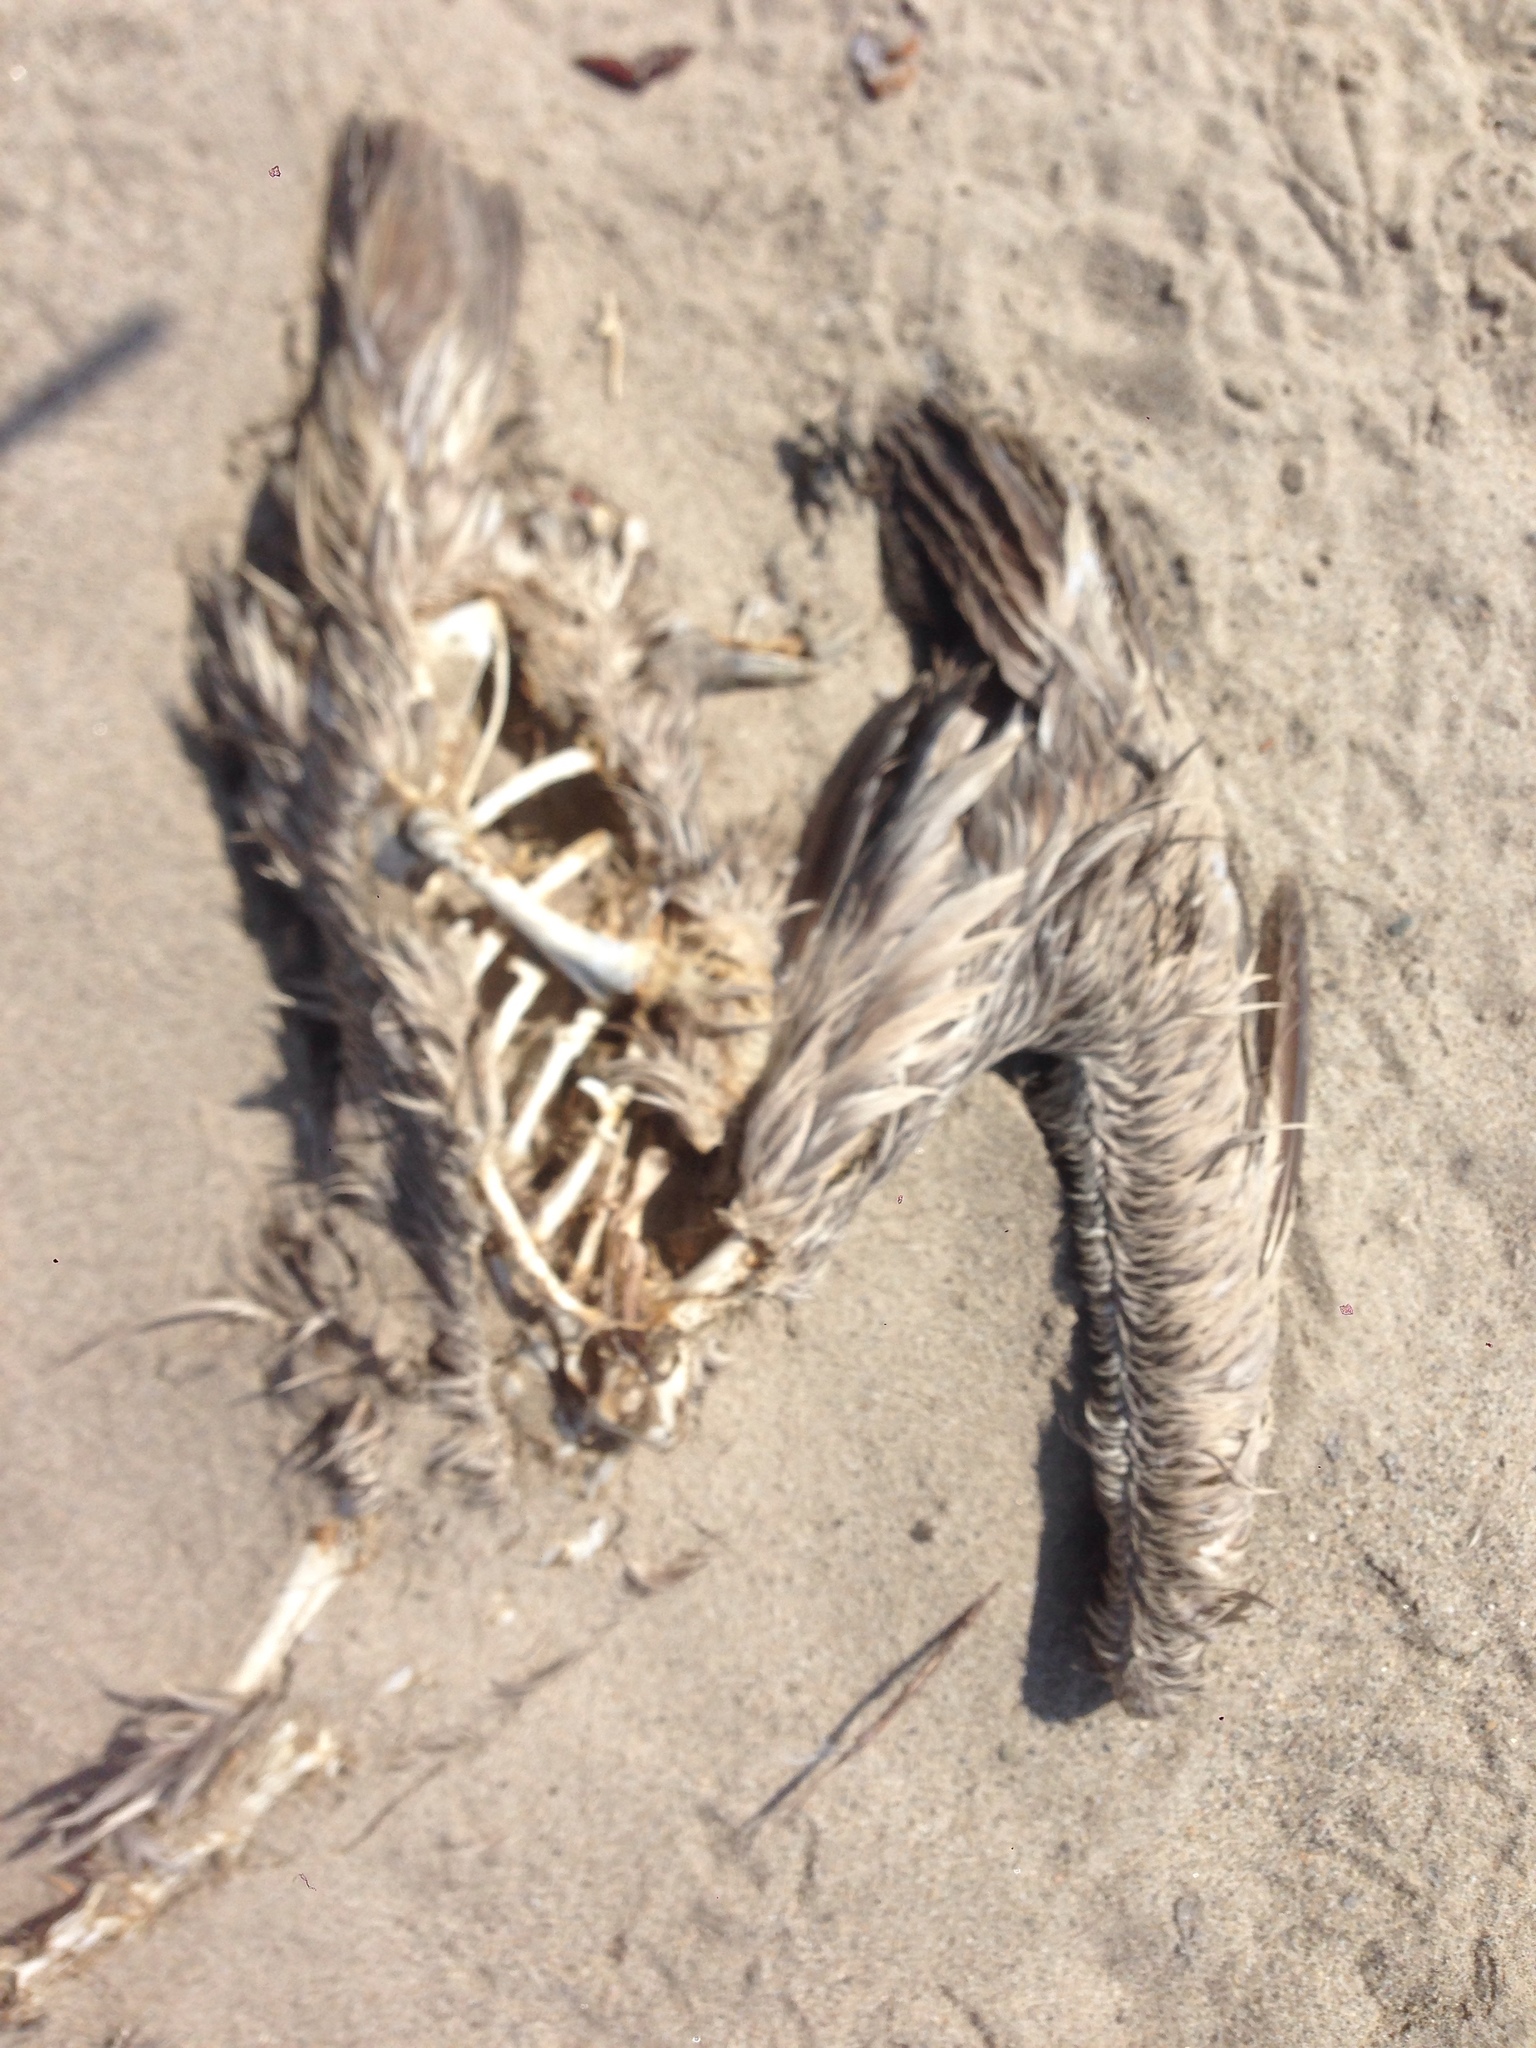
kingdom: Animalia
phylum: Chordata
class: Aves
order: Pelecaniformes
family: Pelecanidae
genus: Pelecanus
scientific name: Pelecanus occidentalis
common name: Brown pelican
